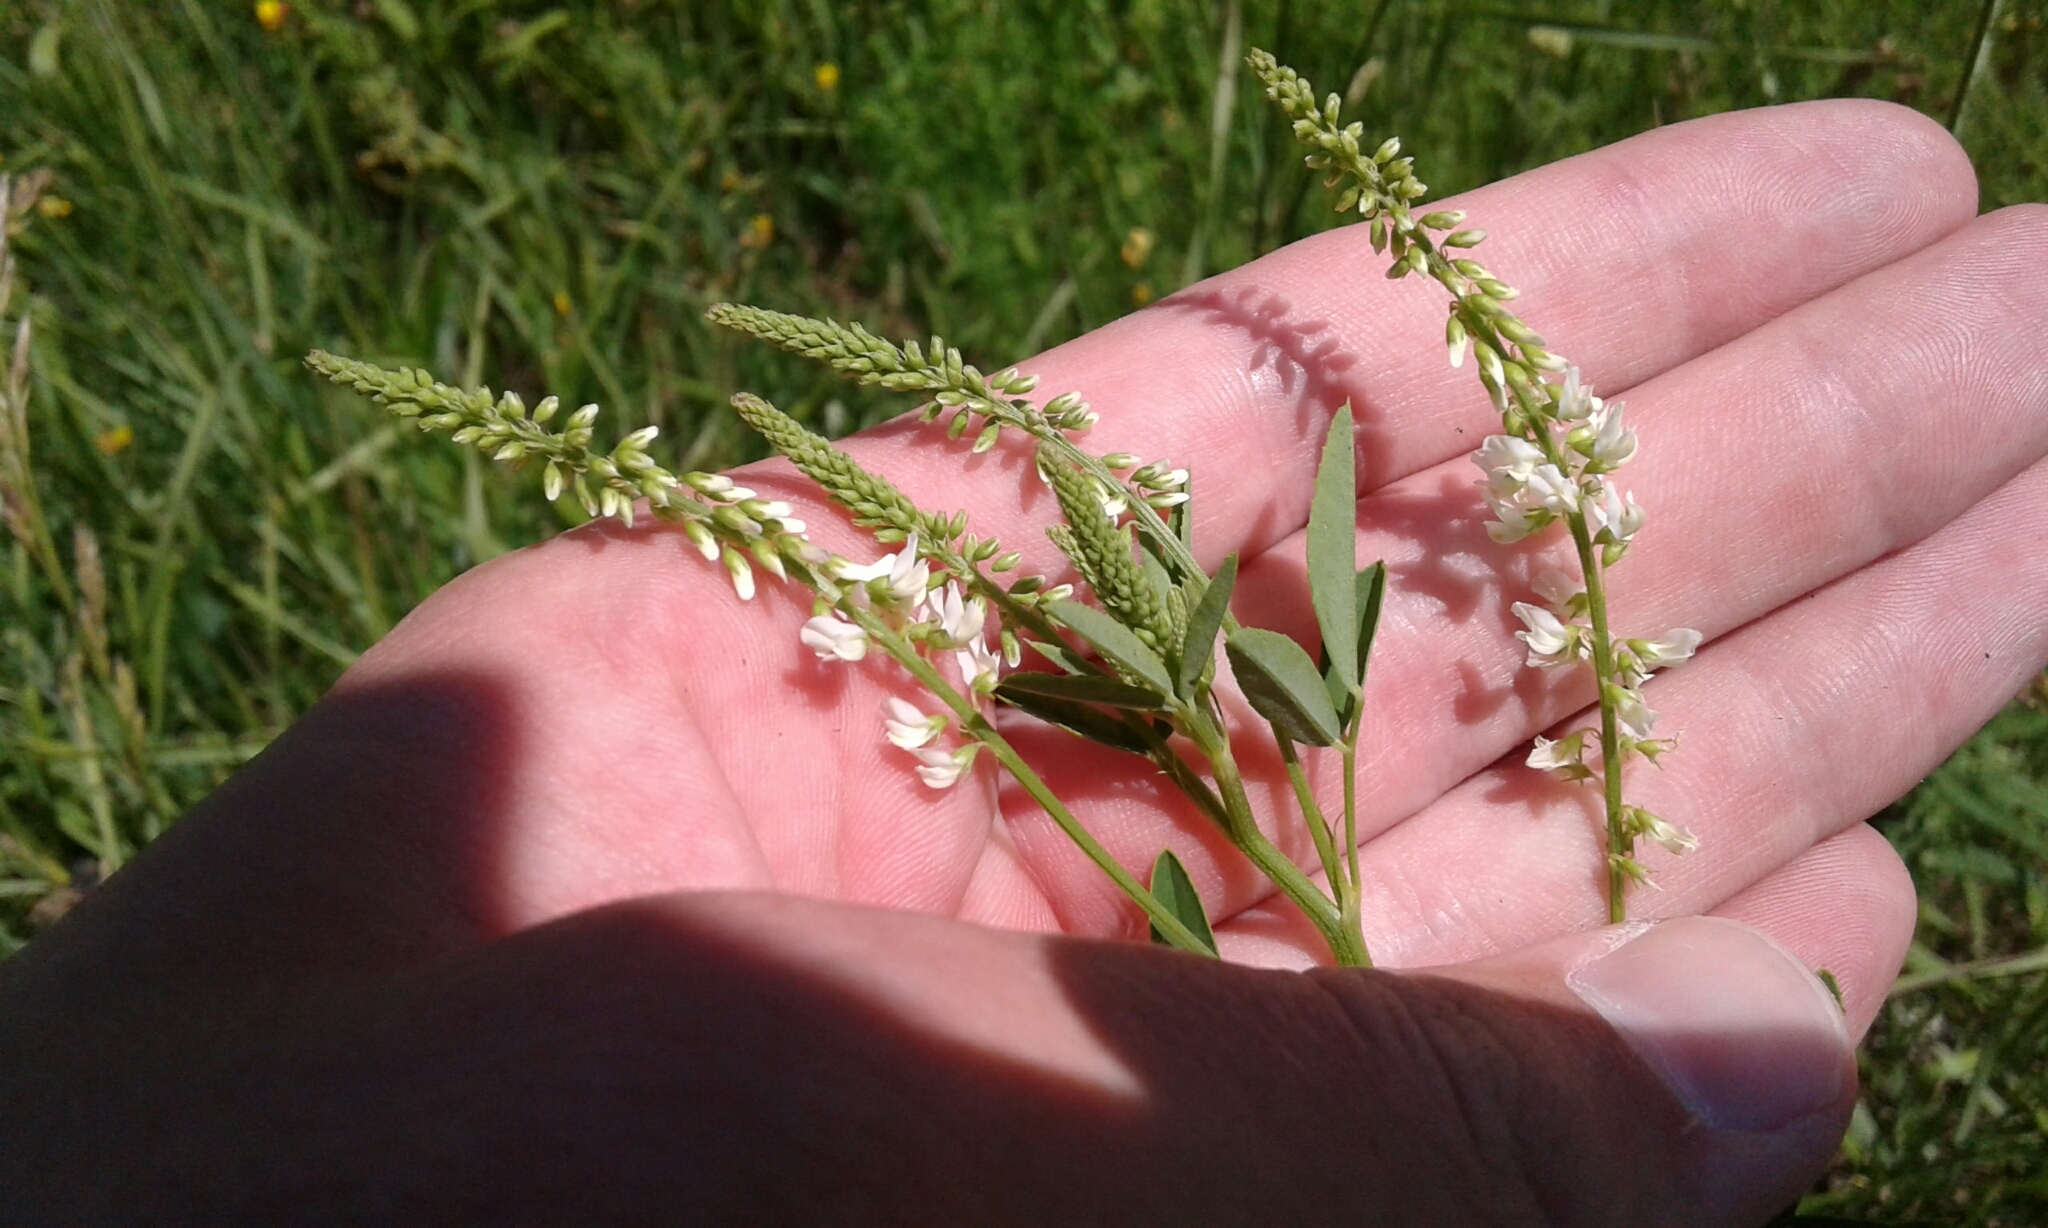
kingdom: Plantae
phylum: Tracheophyta
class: Magnoliopsida
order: Fabales
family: Fabaceae
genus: Melilotus
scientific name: Melilotus albus
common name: White melilot
